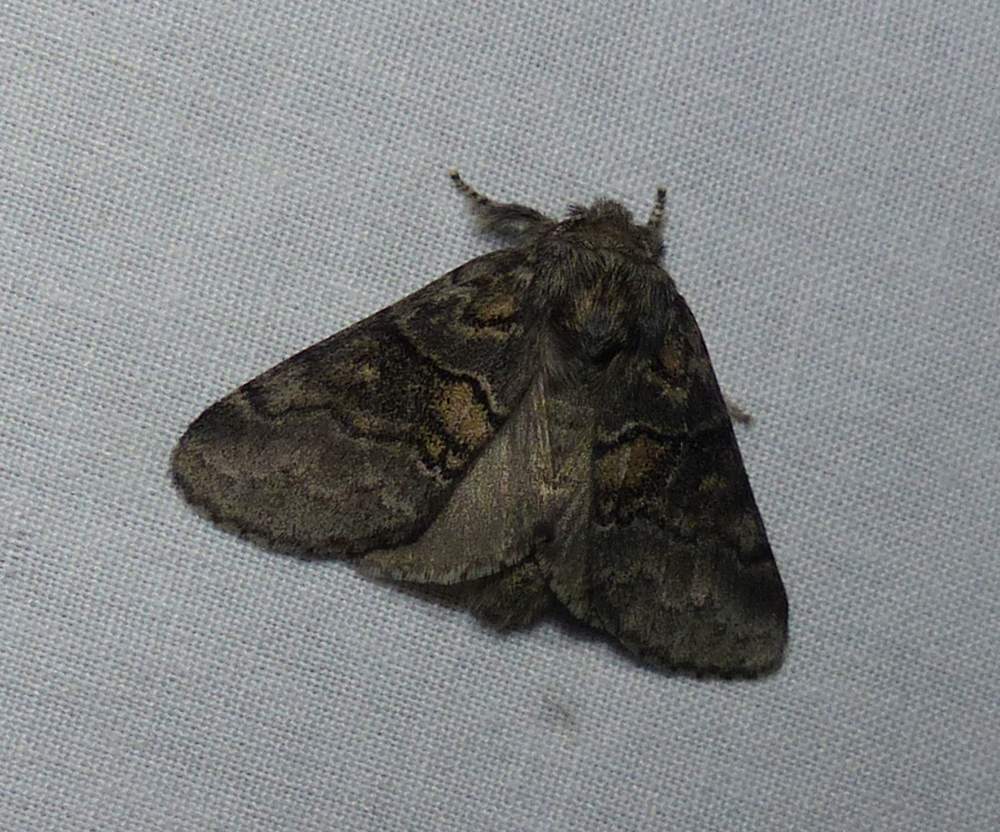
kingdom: Animalia
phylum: Arthropoda
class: Insecta
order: Lepidoptera
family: Notodontidae
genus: Gluphisia
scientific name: Gluphisia septentrionis
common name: Common gluphisia
